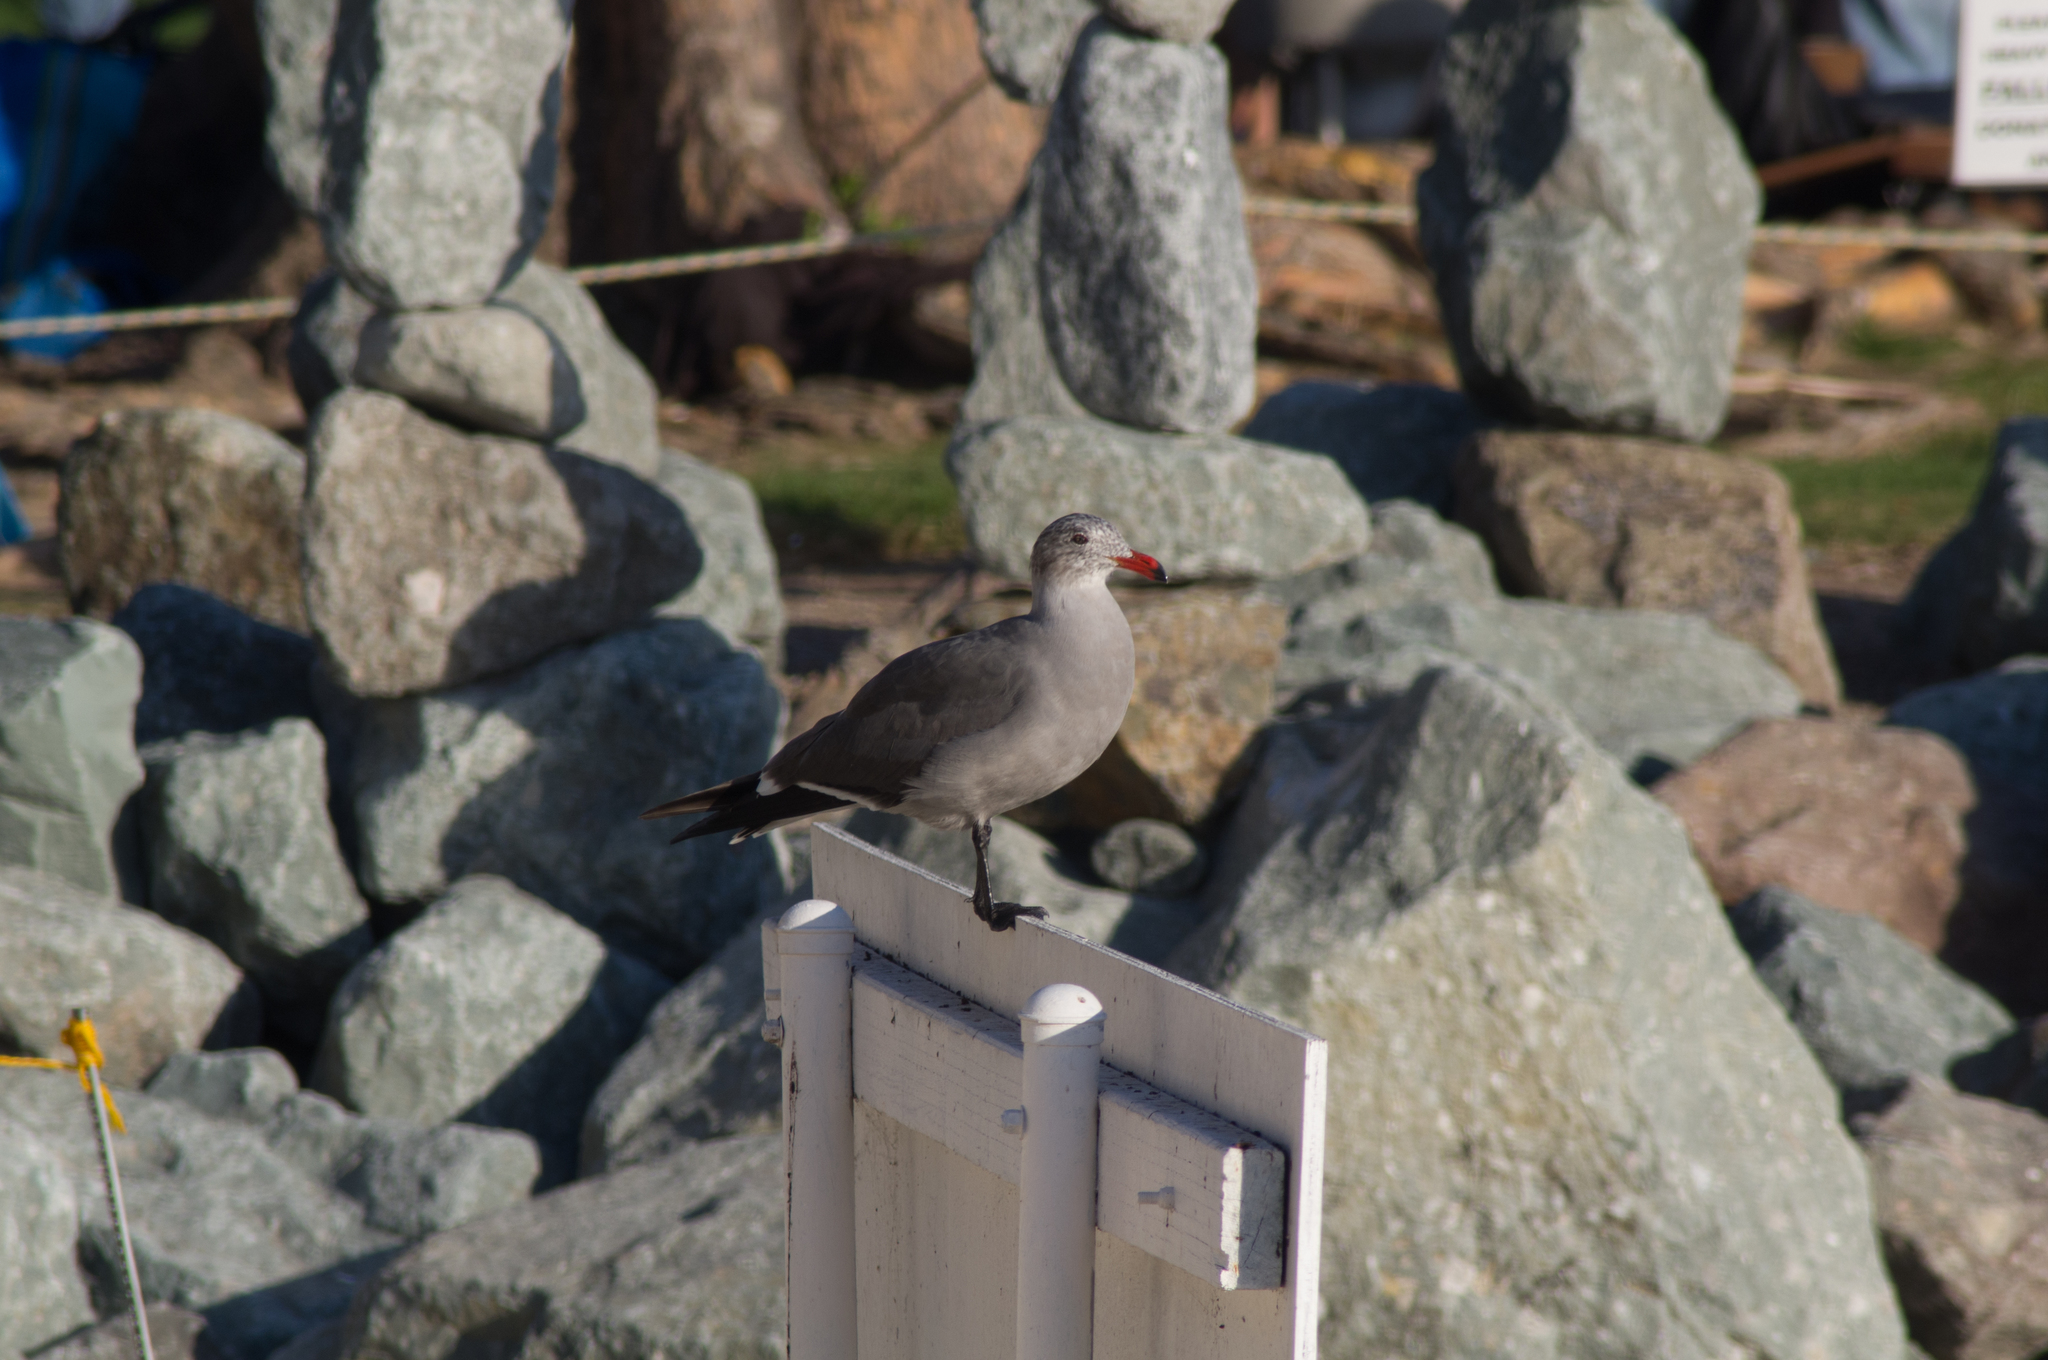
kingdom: Animalia
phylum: Chordata
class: Aves
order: Charadriiformes
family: Laridae
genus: Larus
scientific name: Larus heermanni
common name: Heermann's gull
